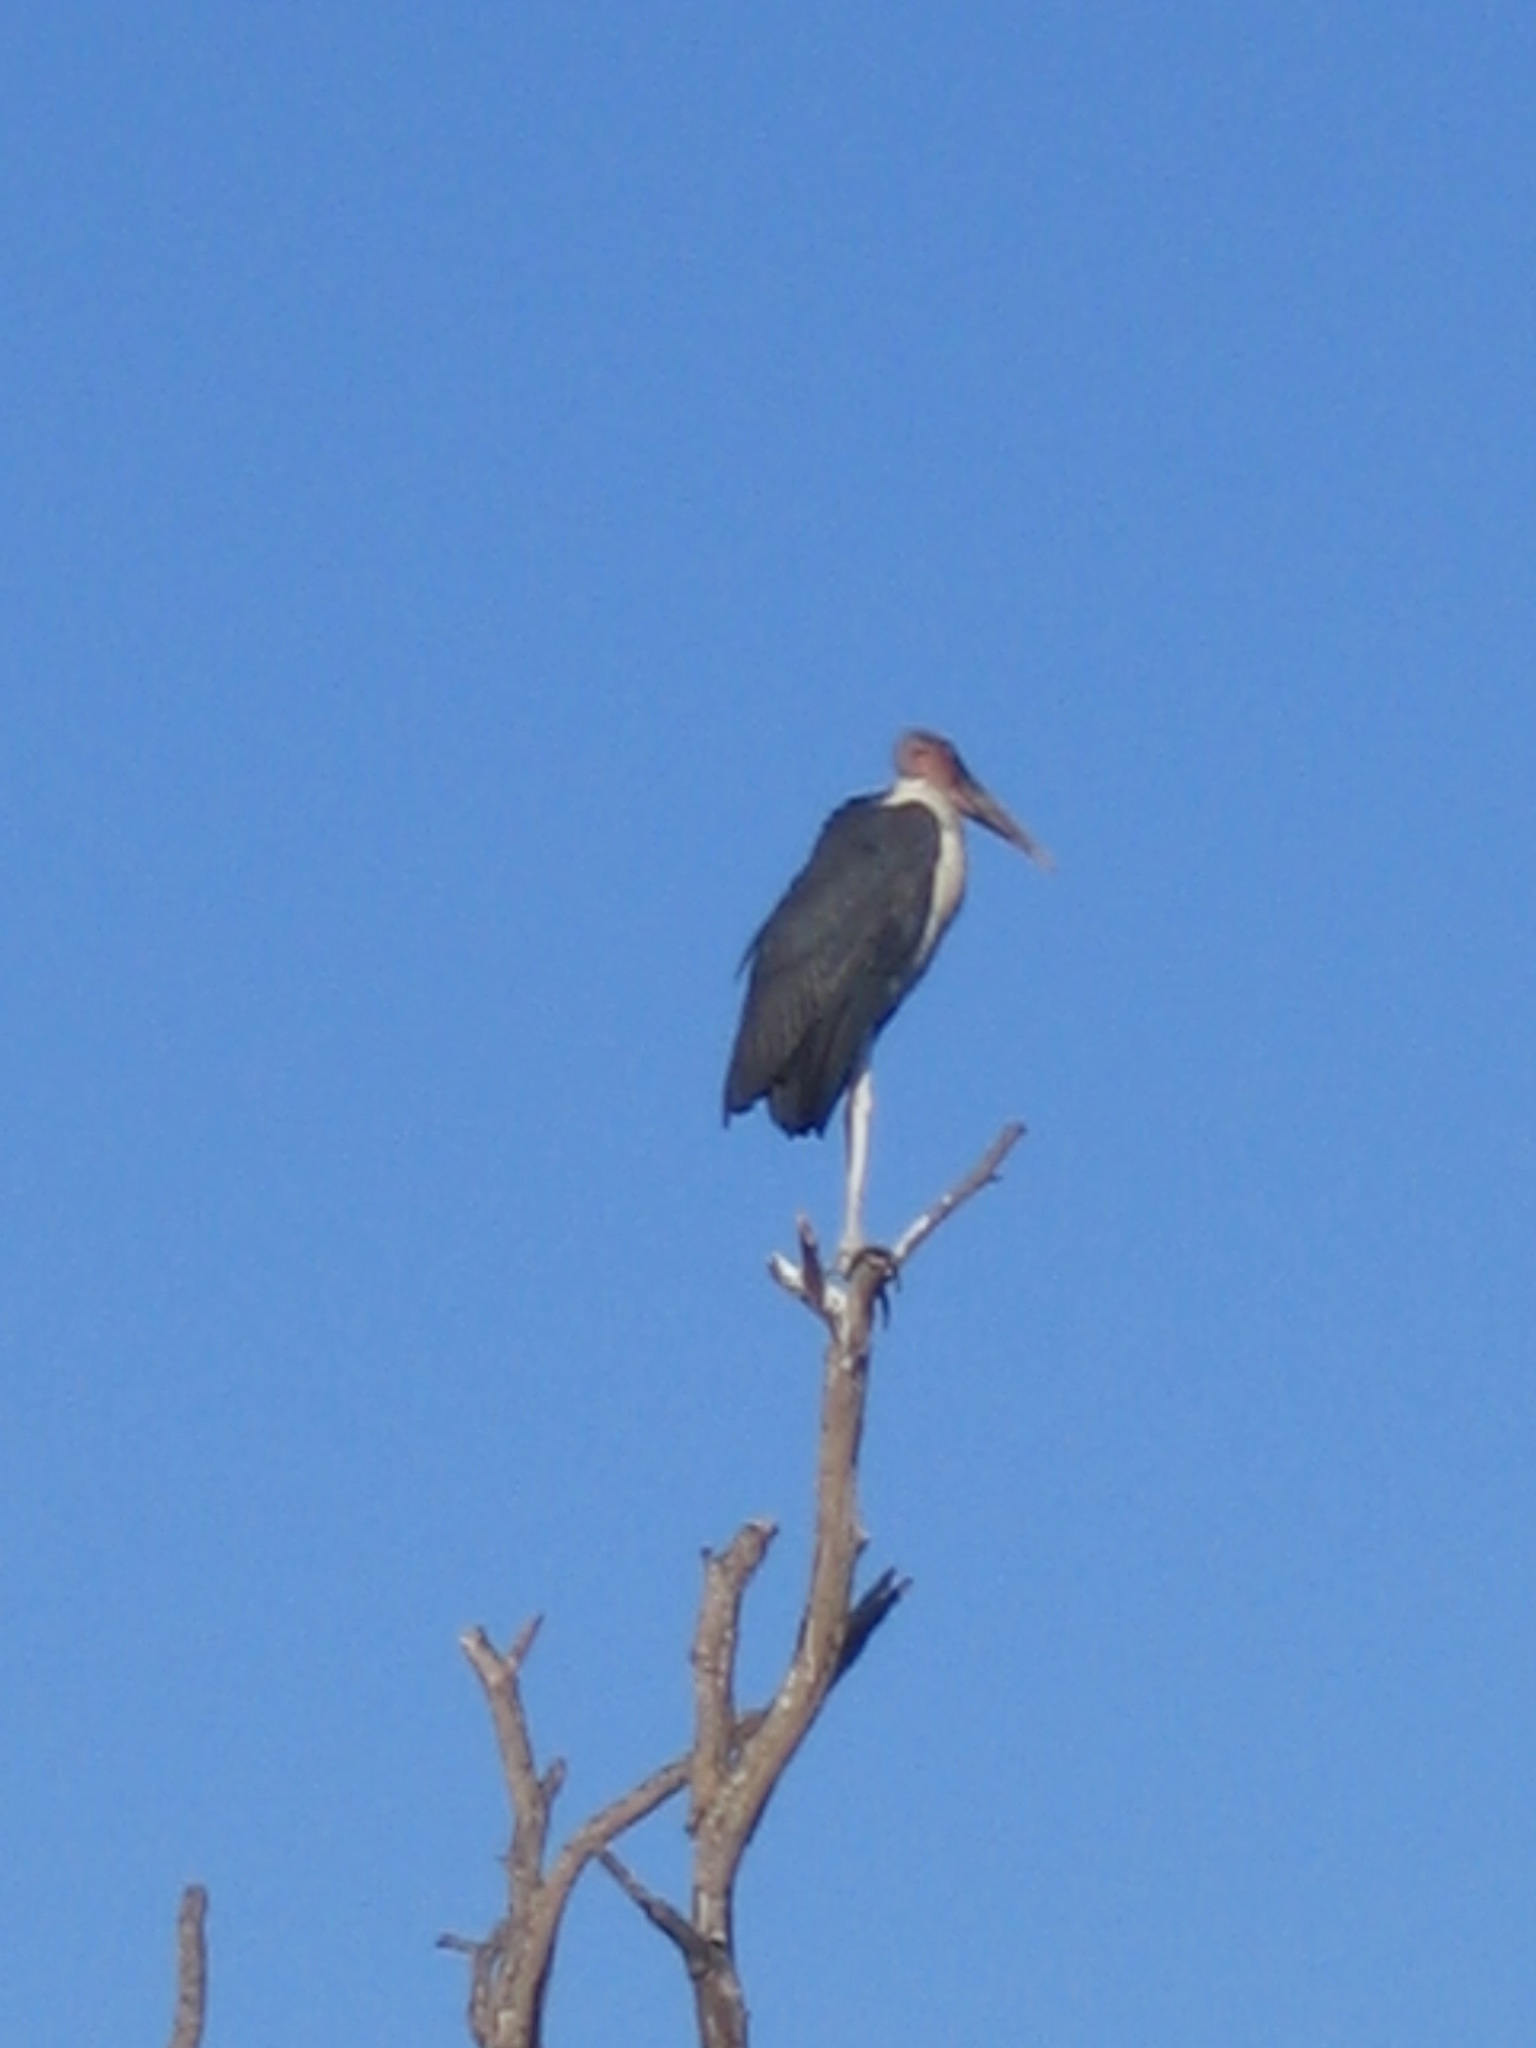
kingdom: Animalia
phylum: Chordata
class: Aves
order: Ciconiiformes
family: Ciconiidae
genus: Leptoptilos
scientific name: Leptoptilos crumenifer
